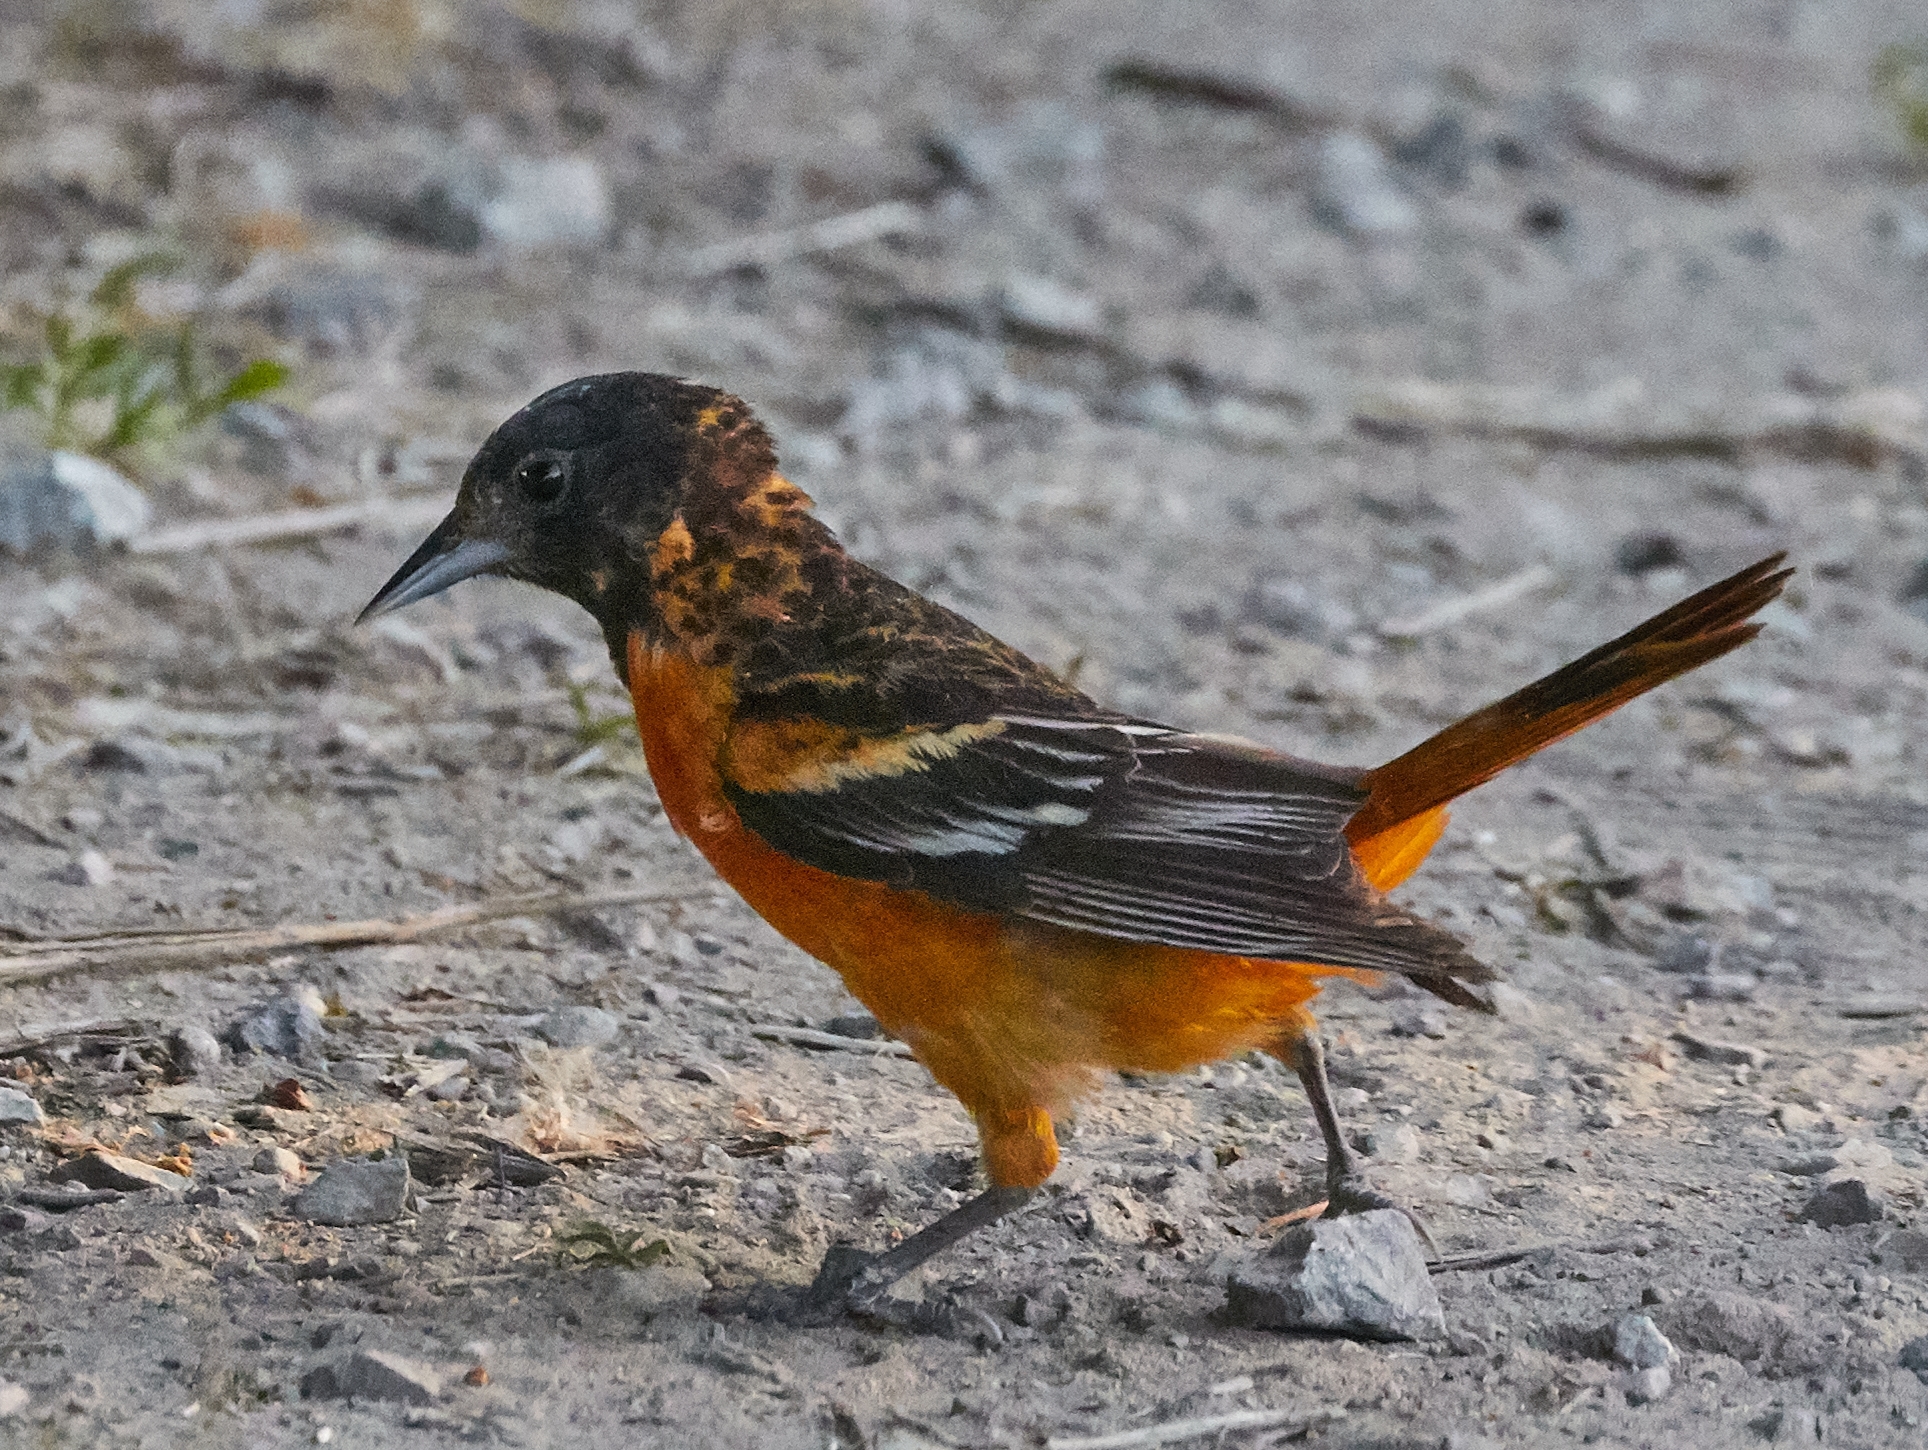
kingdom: Animalia
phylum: Chordata
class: Aves
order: Passeriformes
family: Icteridae
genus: Icterus
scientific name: Icterus galbula
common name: Baltimore oriole
